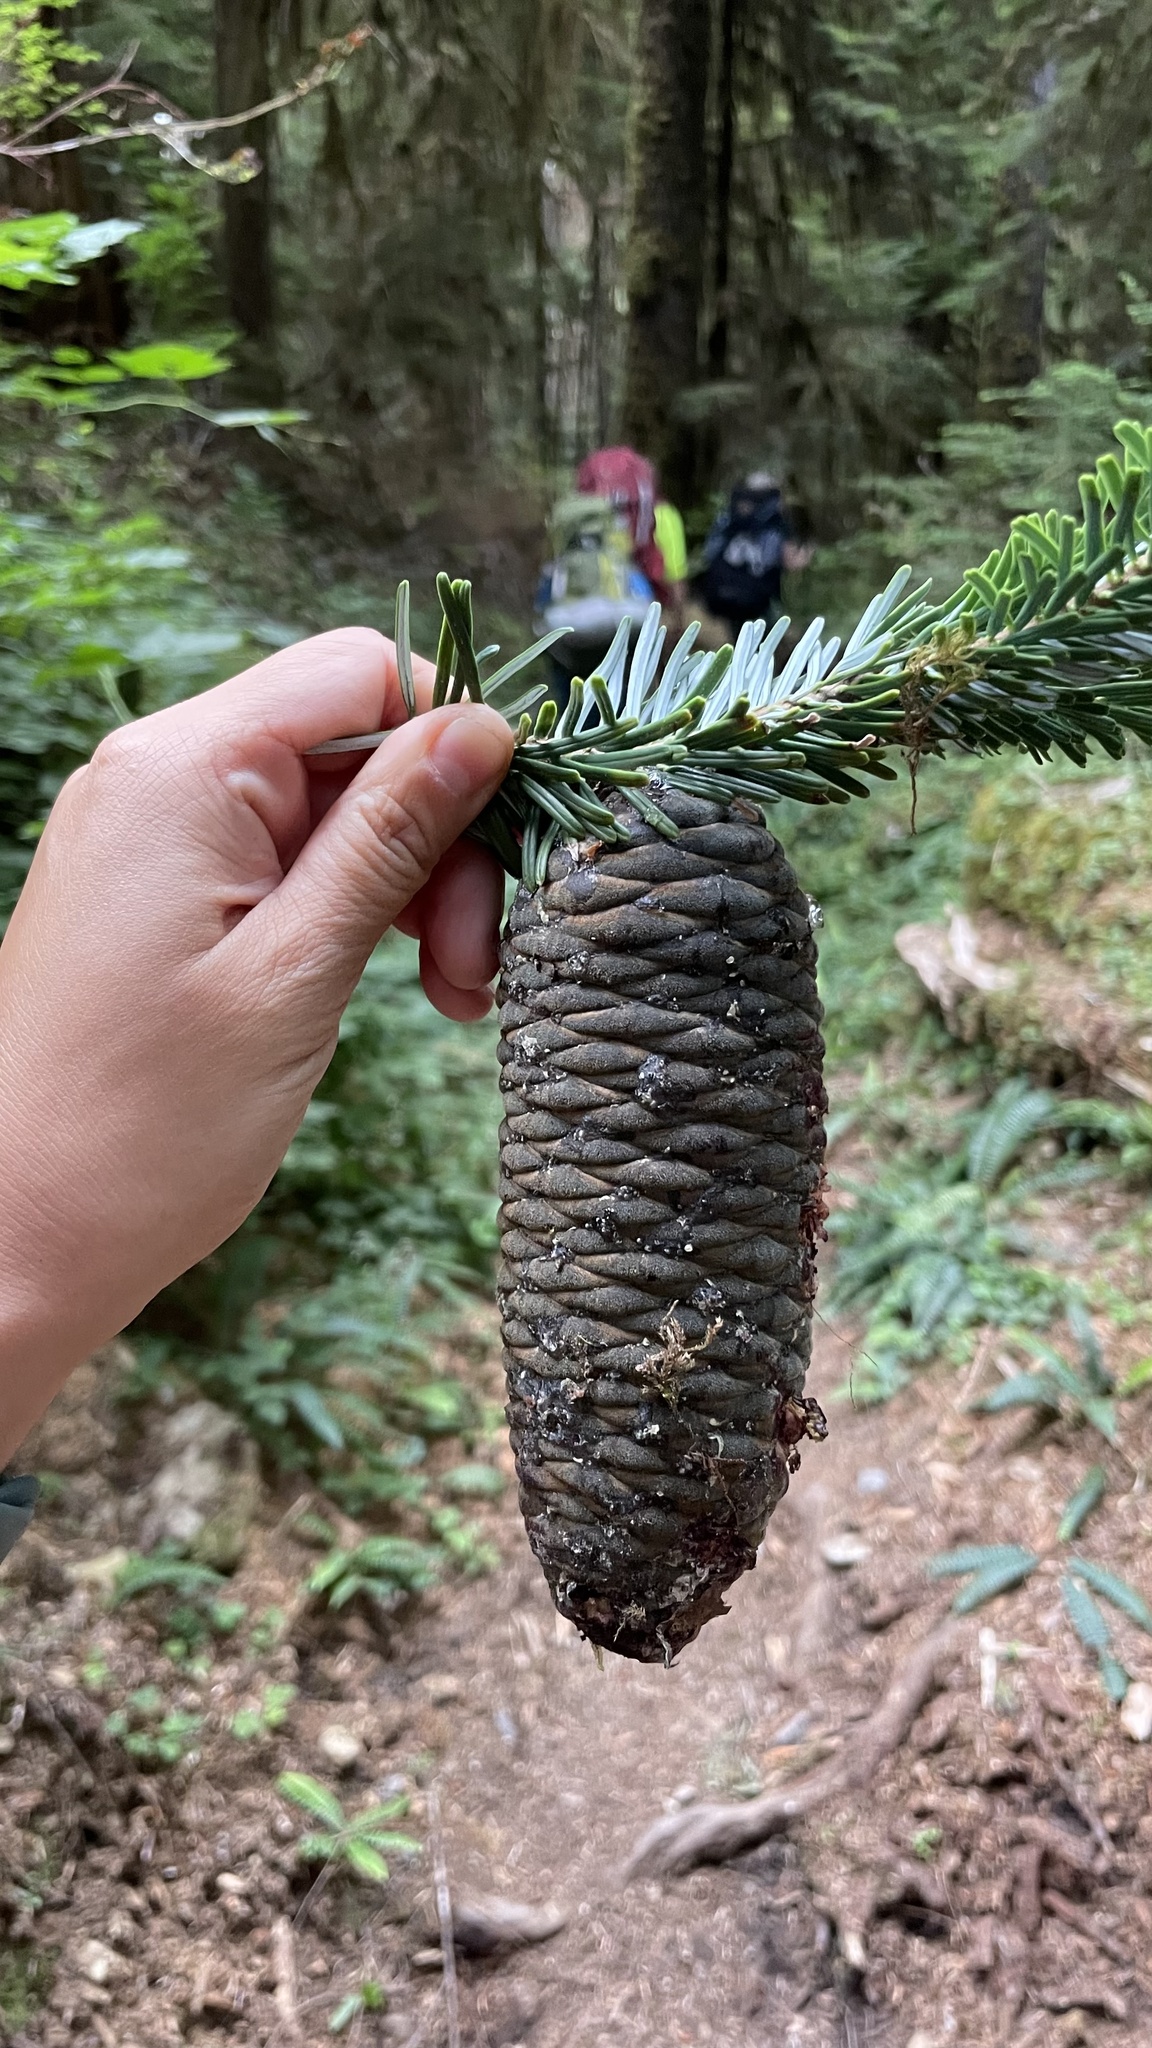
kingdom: Plantae
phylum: Tracheophyta
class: Pinopsida
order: Pinales
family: Pinaceae
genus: Abies
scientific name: Abies amabilis
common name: Pacific silver fir
